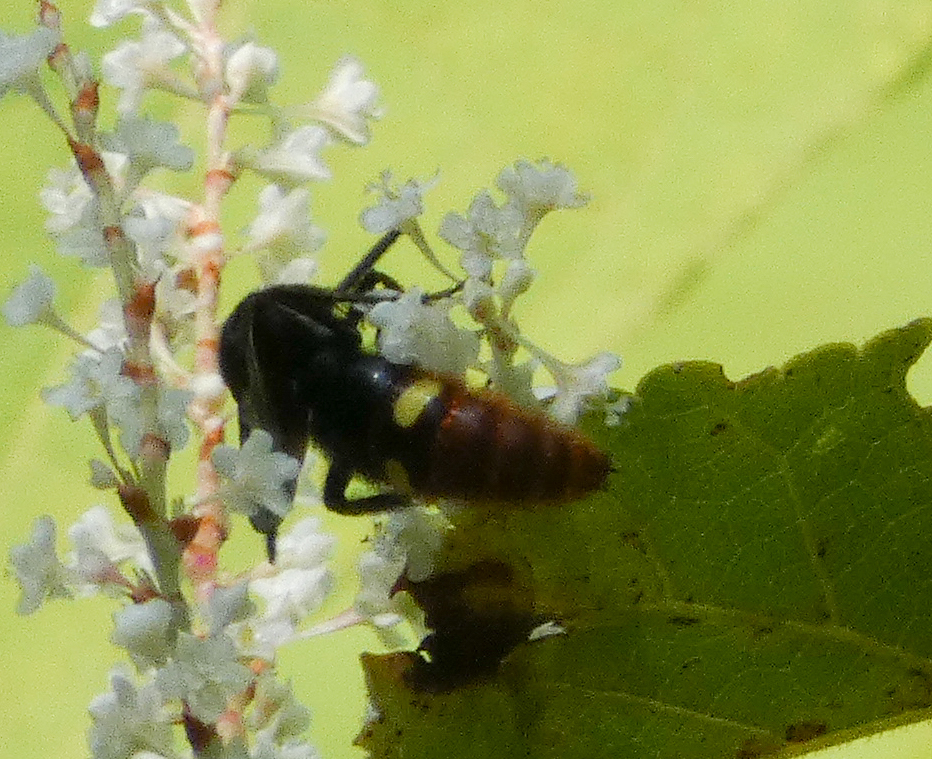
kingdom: Animalia
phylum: Arthropoda
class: Insecta
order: Hymenoptera
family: Scoliidae
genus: Scolia
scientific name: Scolia dubia
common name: Blue-winged scoliid wasp
